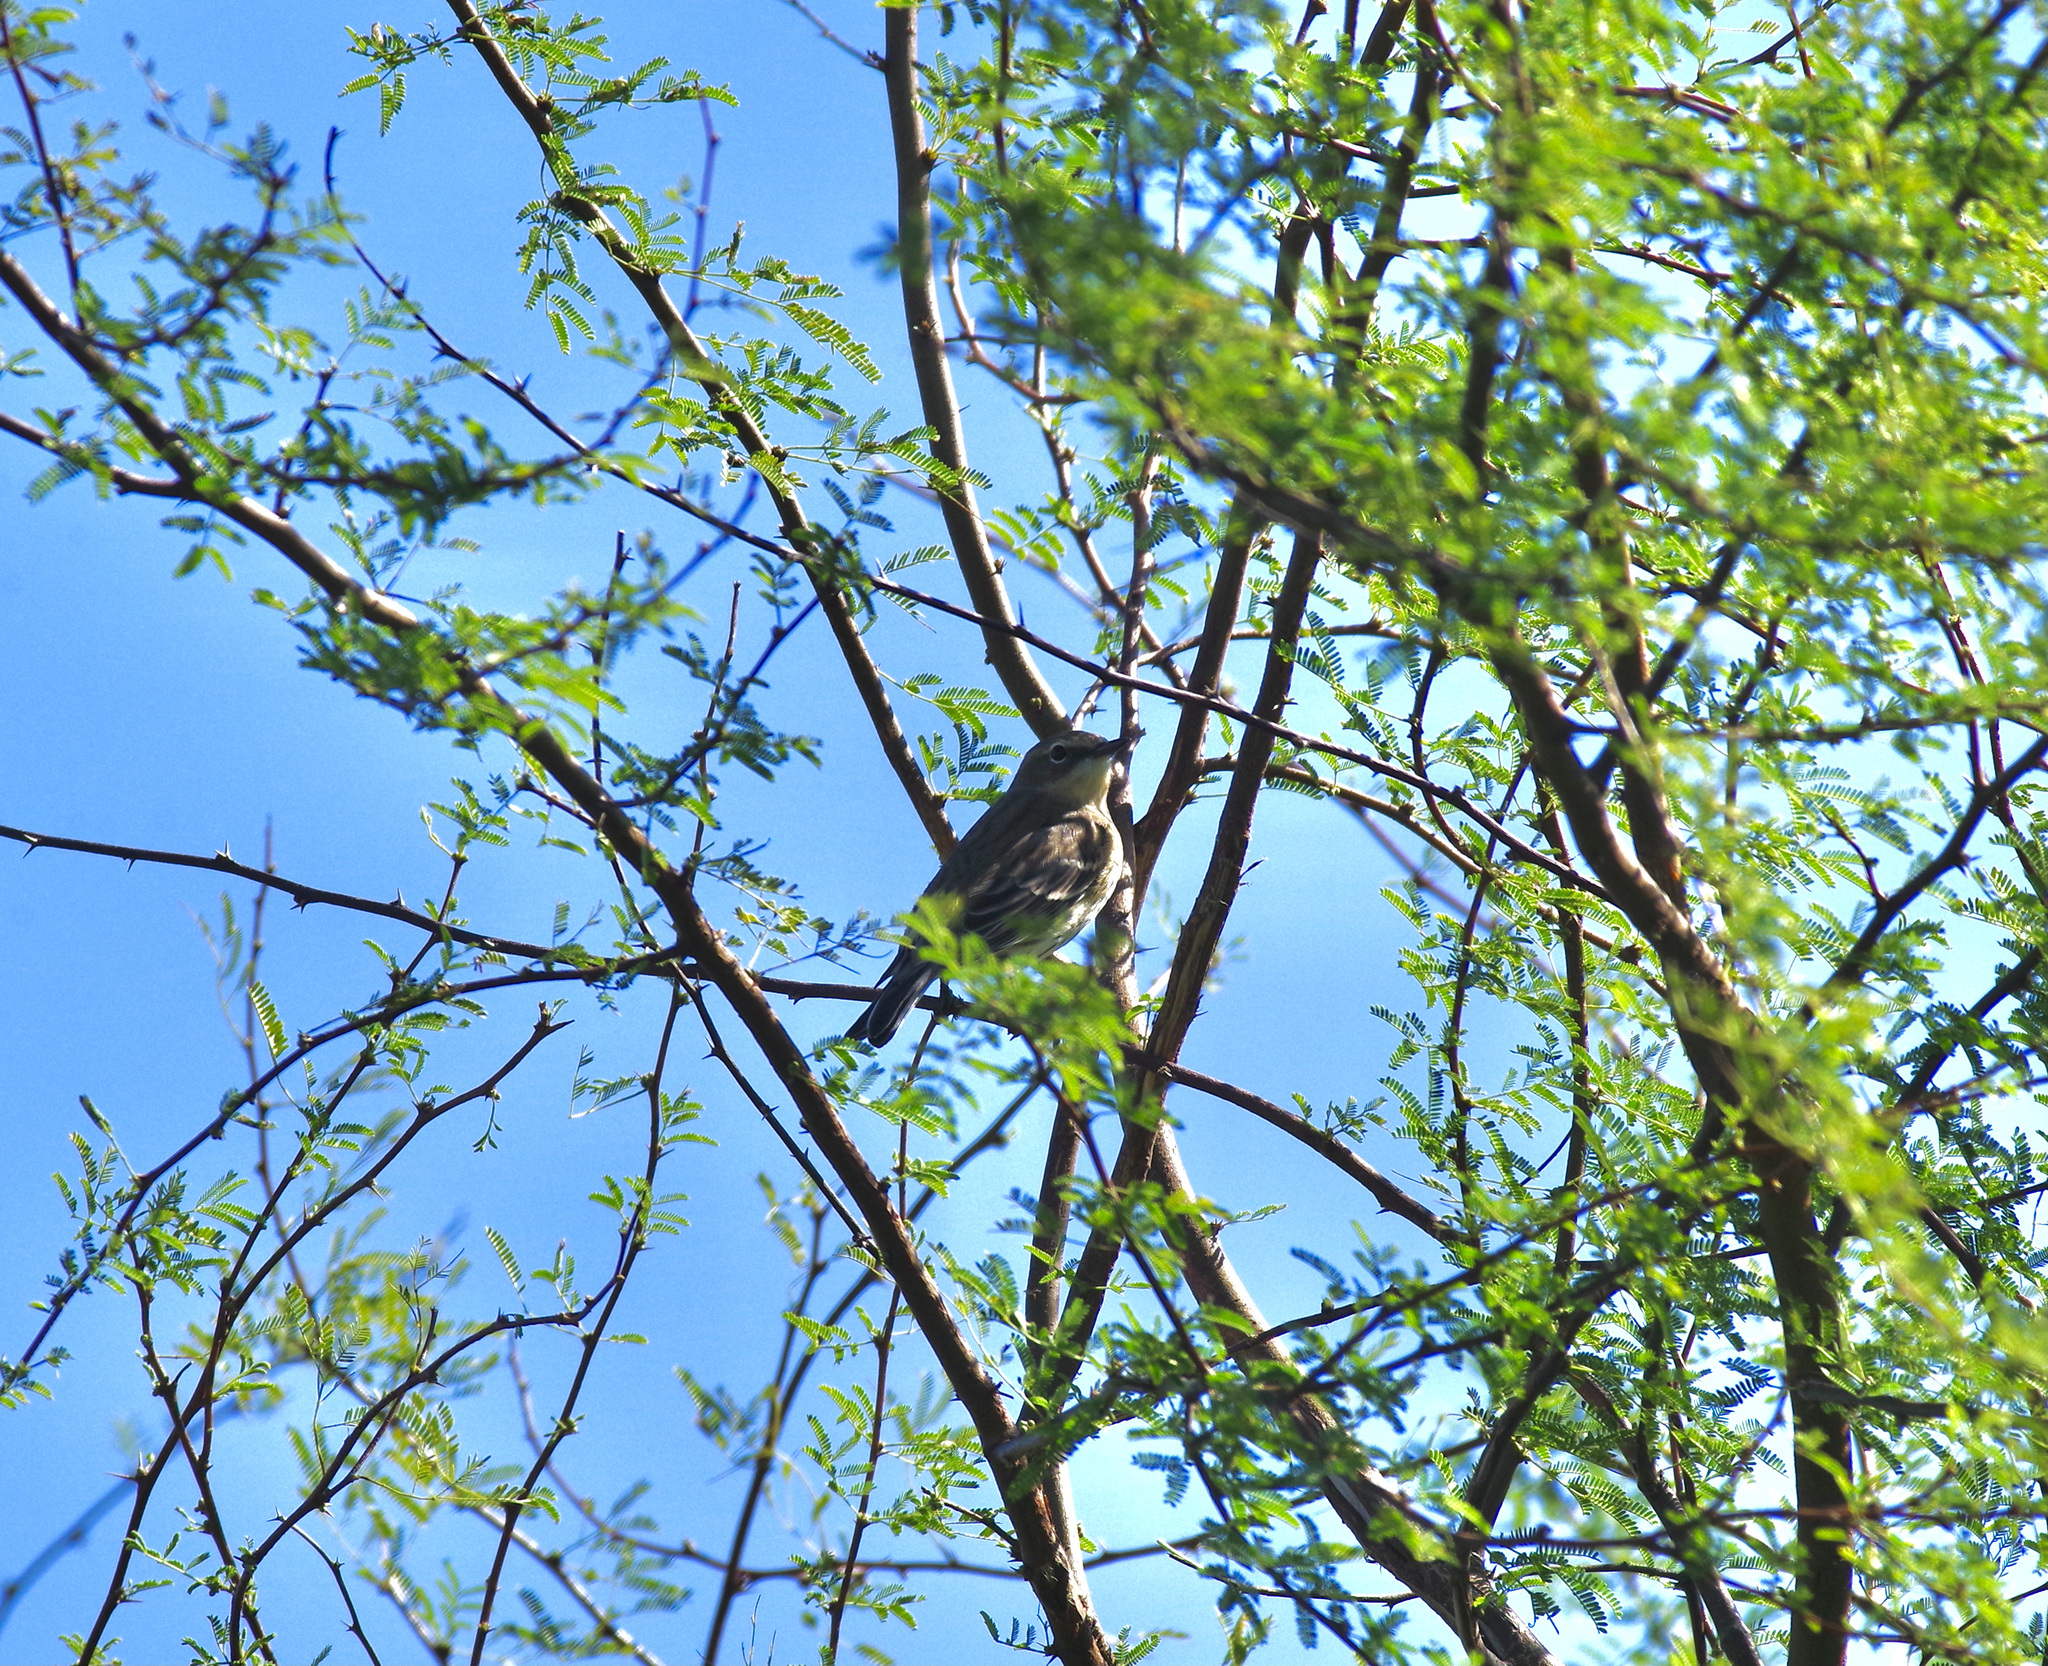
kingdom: Animalia
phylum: Chordata
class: Aves
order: Passeriformes
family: Parulidae
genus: Setophaga
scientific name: Setophaga coronata
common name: Myrtle warbler
